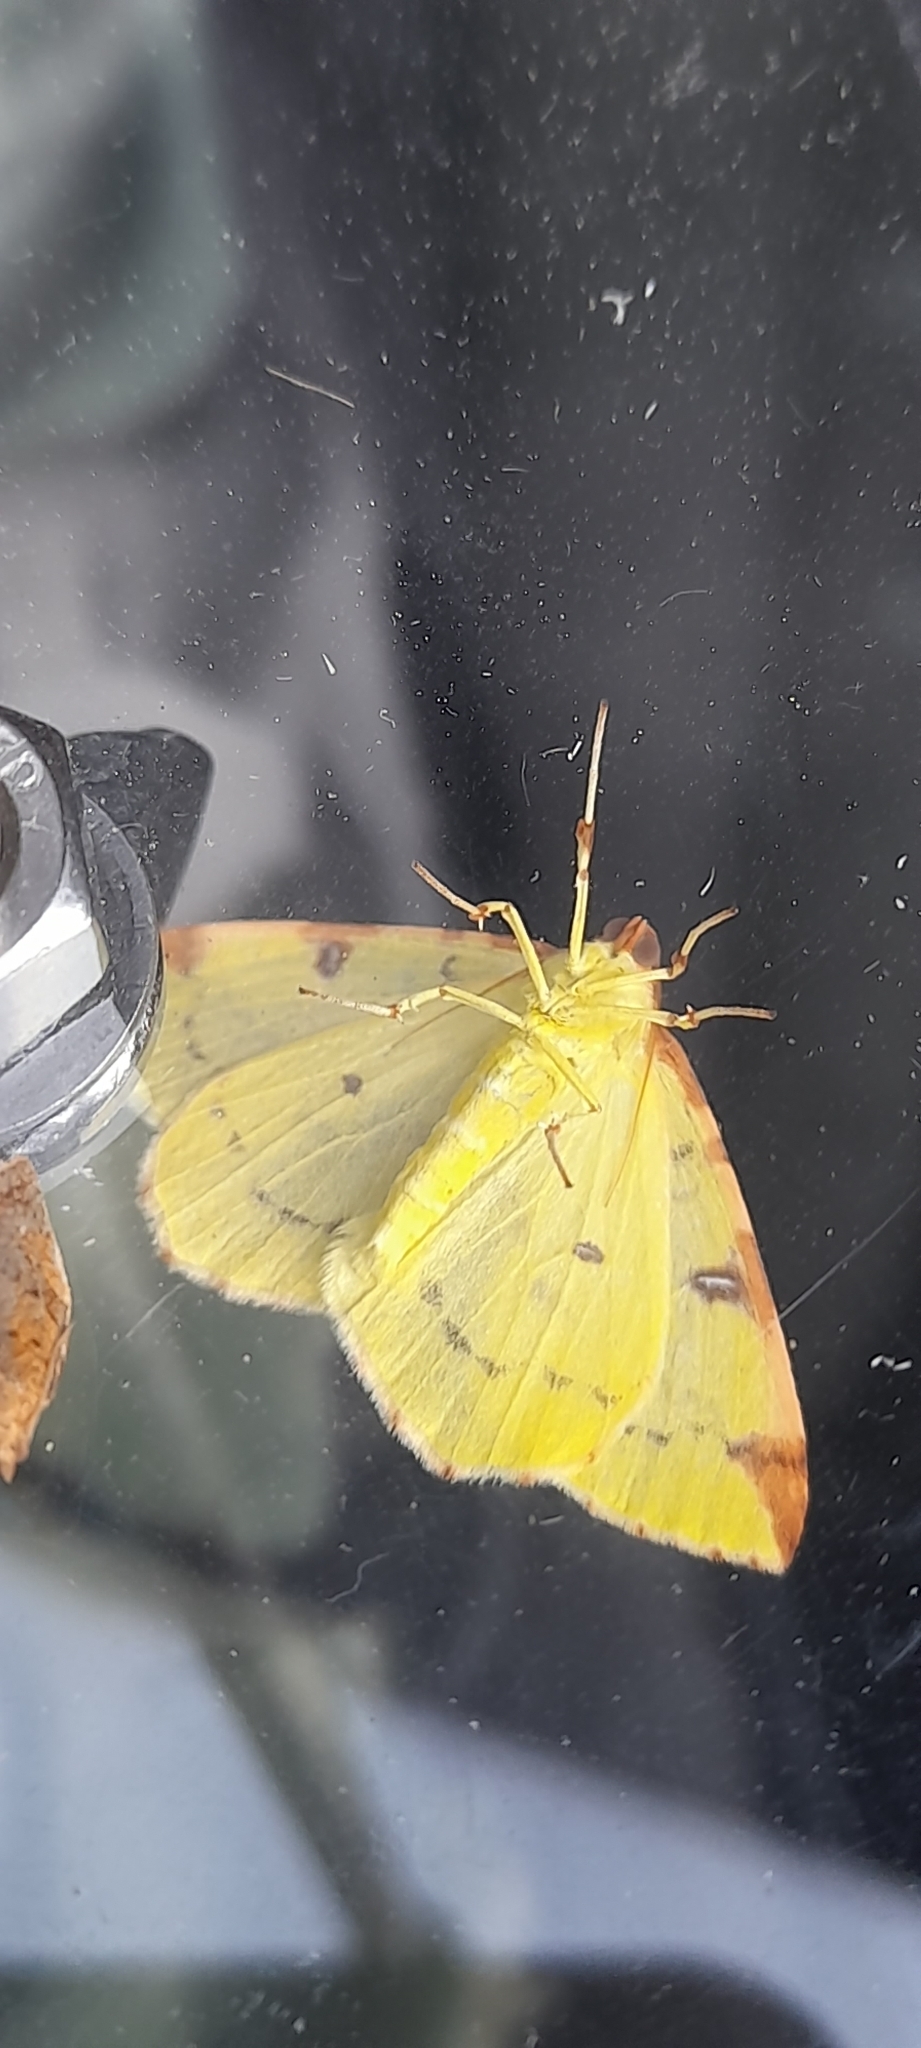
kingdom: Animalia
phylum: Arthropoda
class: Insecta
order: Lepidoptera
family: Geometridae
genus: Opisthograptis
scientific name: Opisthograptis luteolata
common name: Brimstone moth
